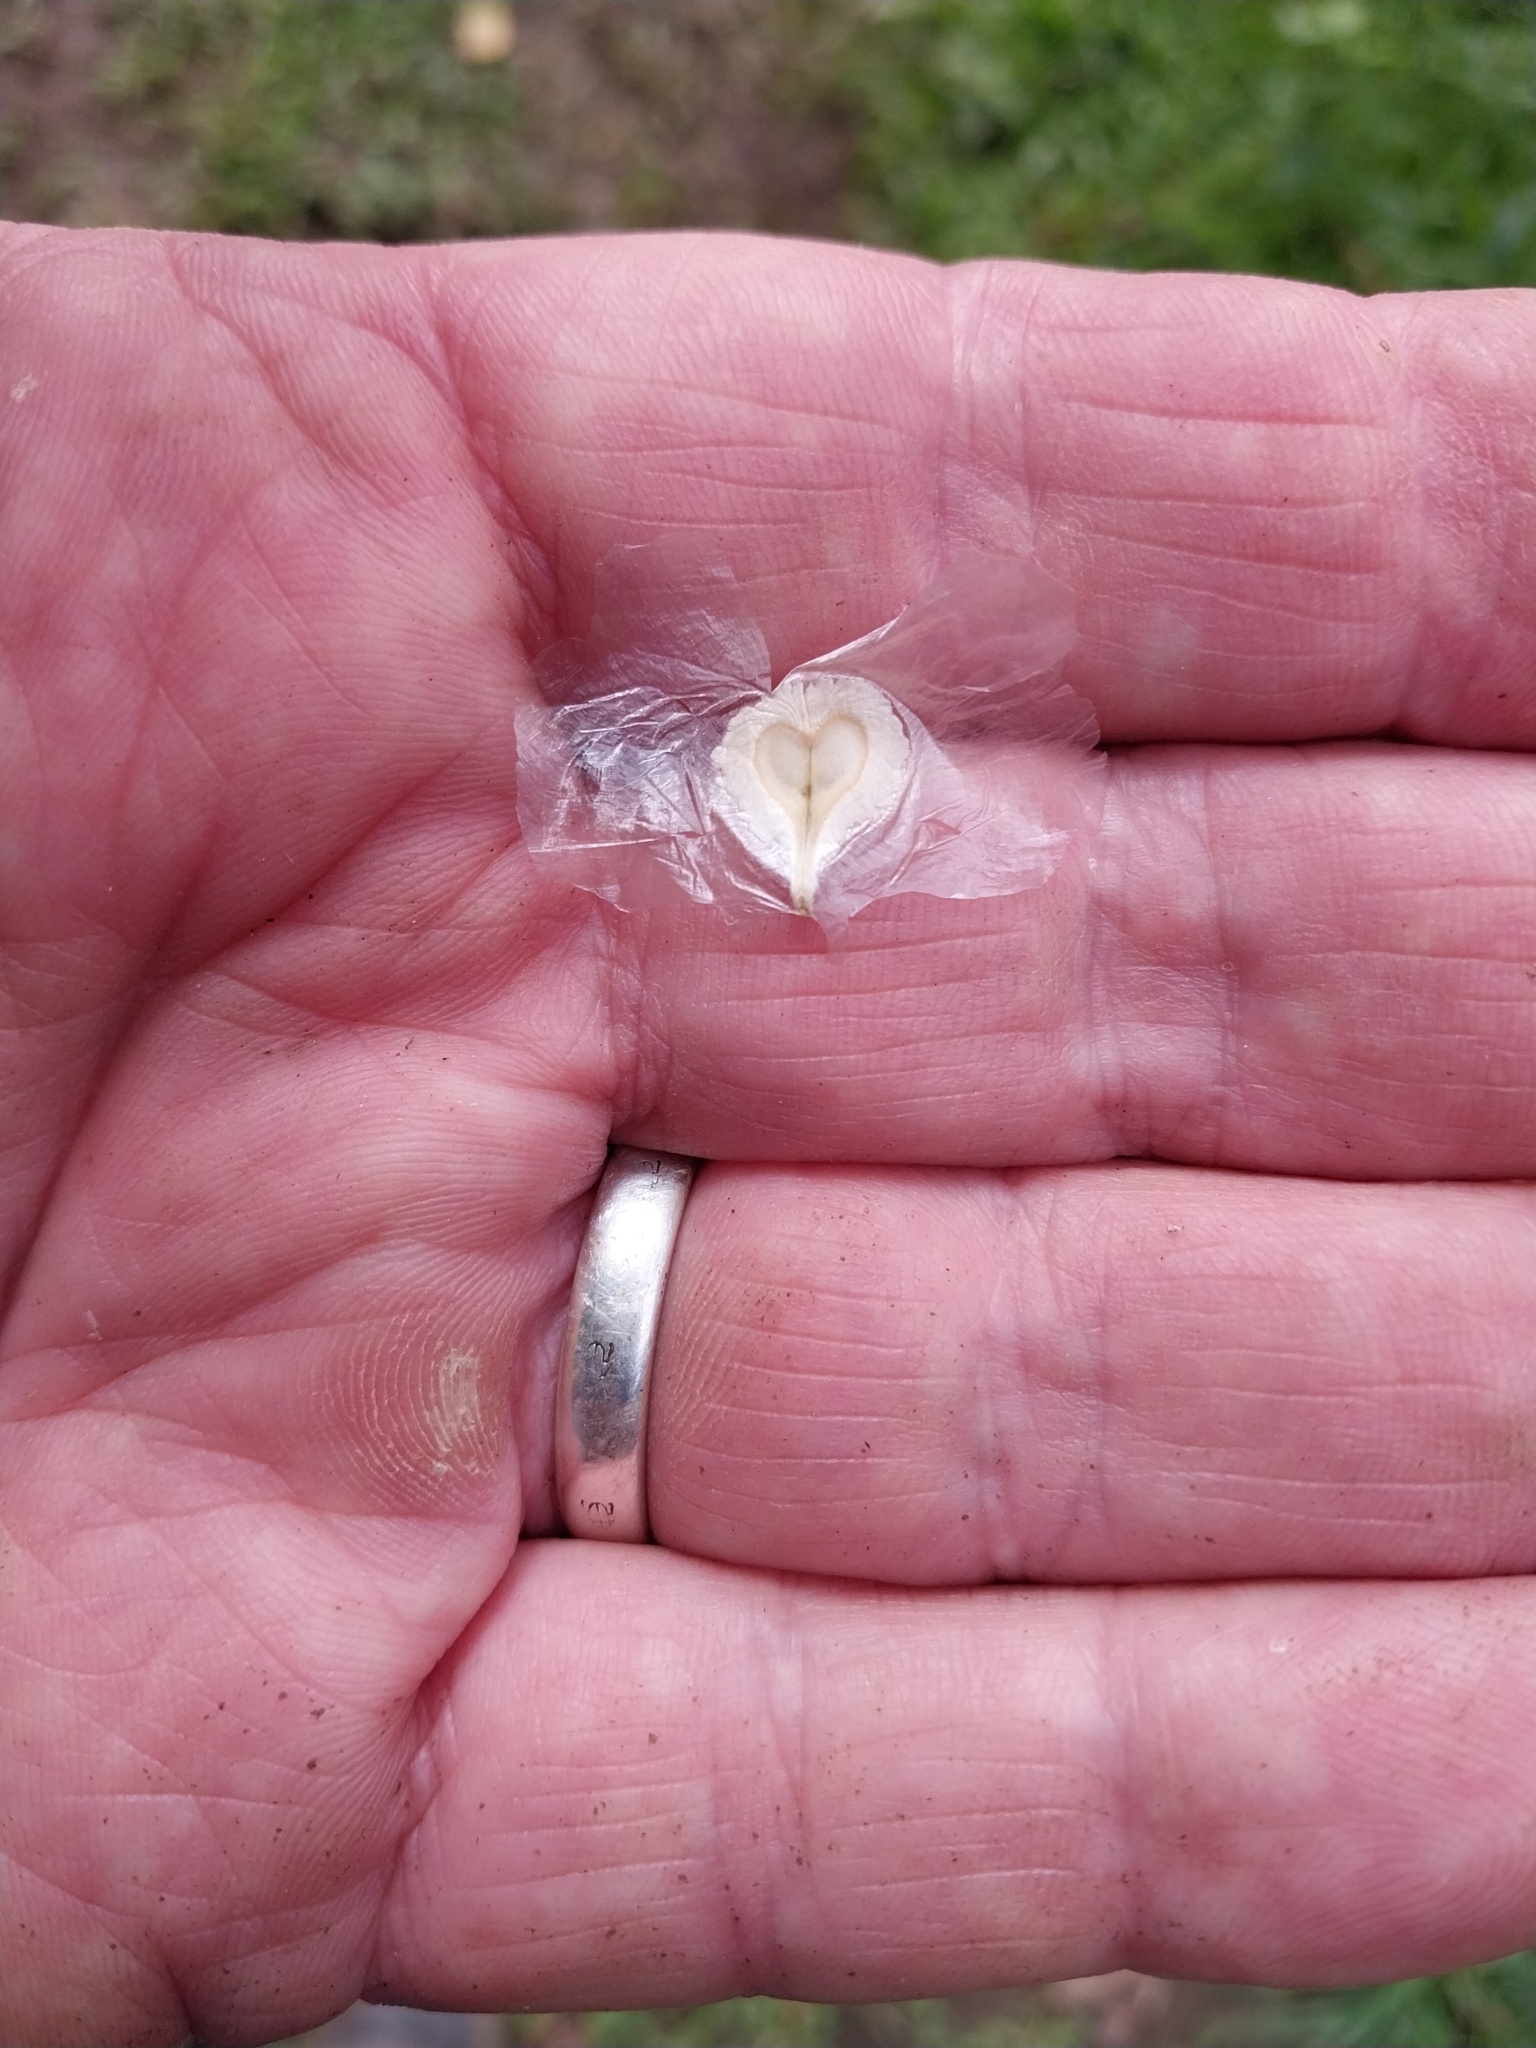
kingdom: Plantae
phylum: Tracheophyta
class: Magnoliopsida
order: Lamiales
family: Bignoniaceae
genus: Spathodea
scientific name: Spathodea campanulata
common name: African tuliptree
